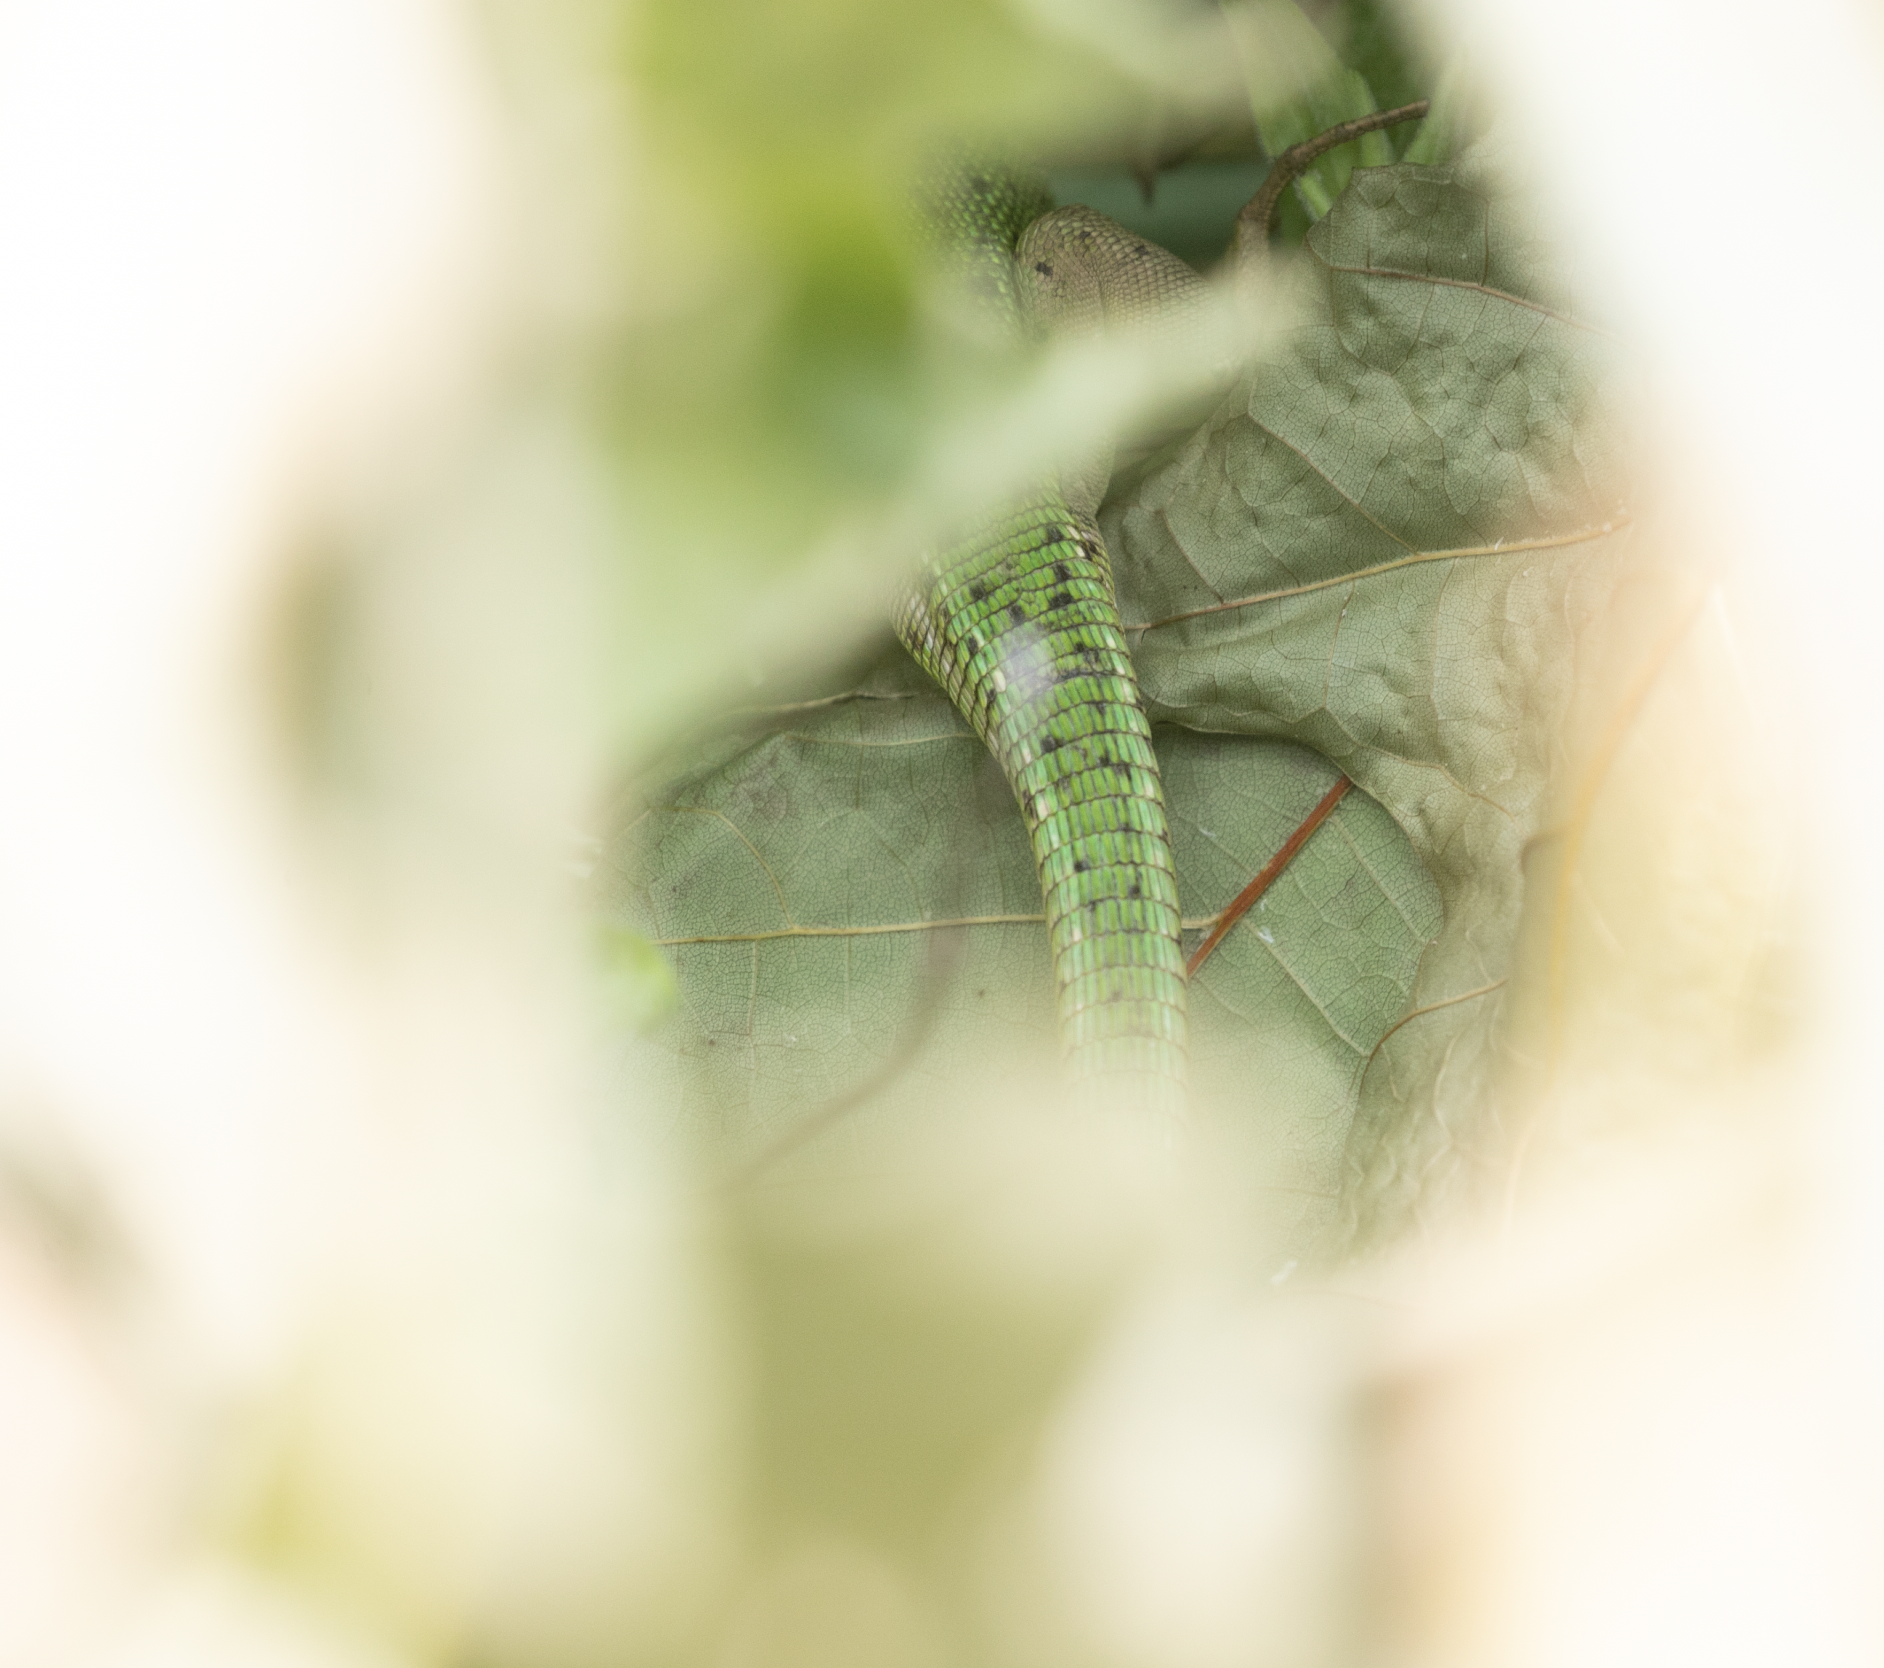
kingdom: Animalia
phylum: Chordata
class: Squamata
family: Lacertidae
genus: Lacerta
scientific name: Lacerta bilineata
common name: Western green lizard
